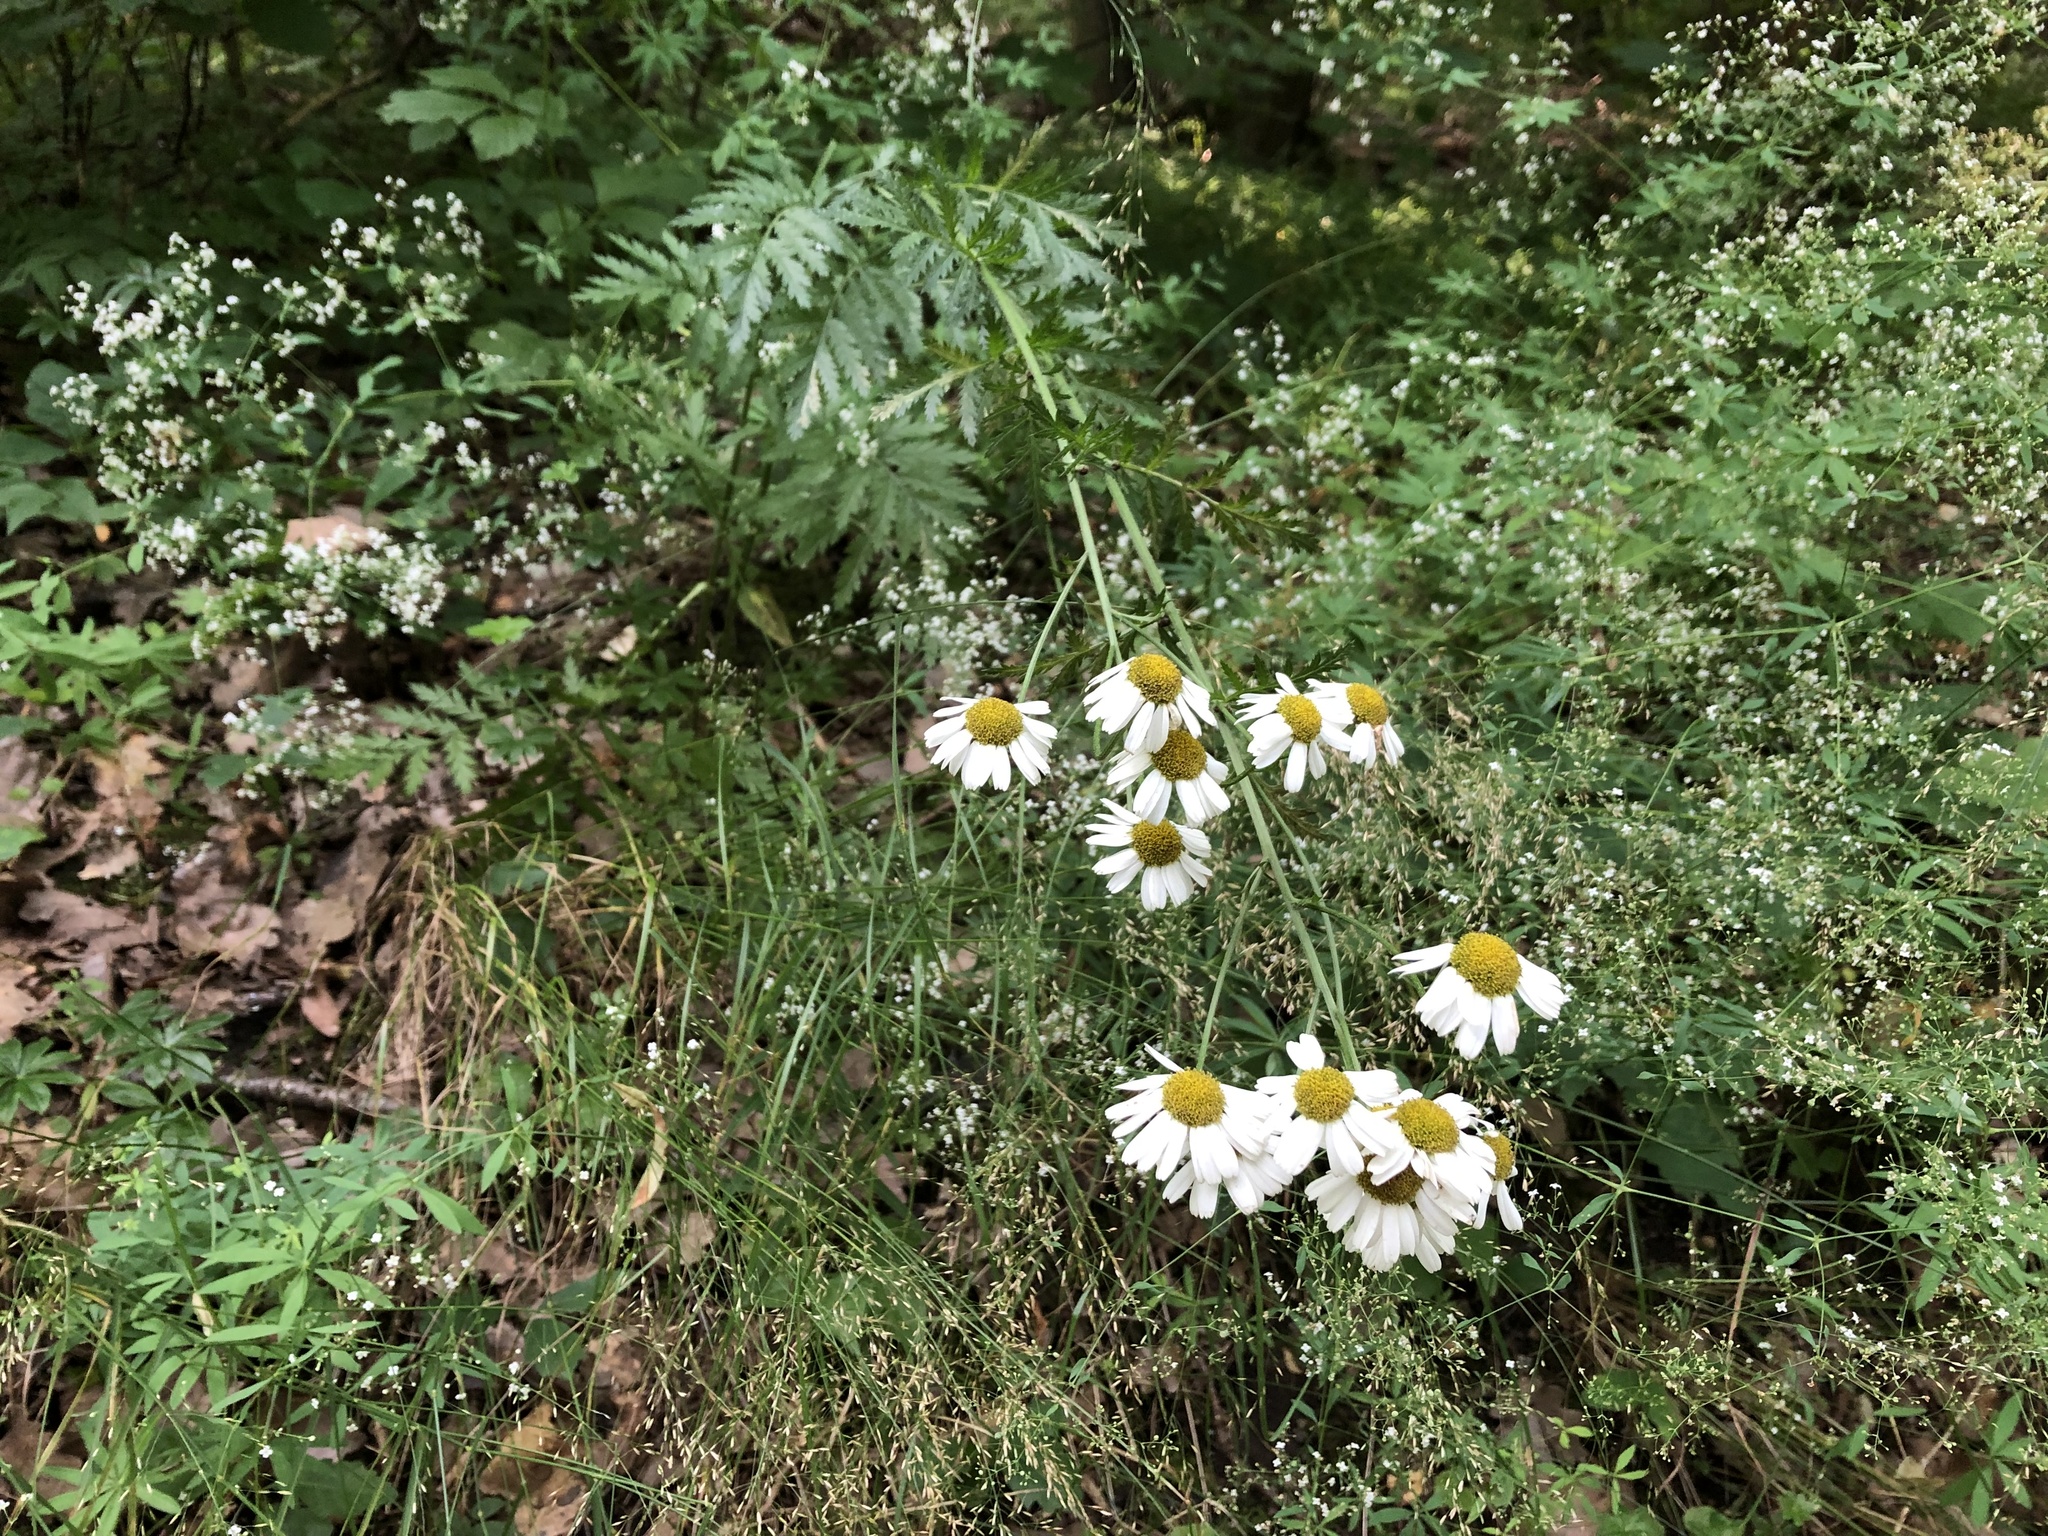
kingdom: Plantae
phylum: Tracheophyta
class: Magnoliopsida
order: Asterales
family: Asteraceae
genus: Tanacetum
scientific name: Tanacetum corymbosum
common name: Scentless feverfew
